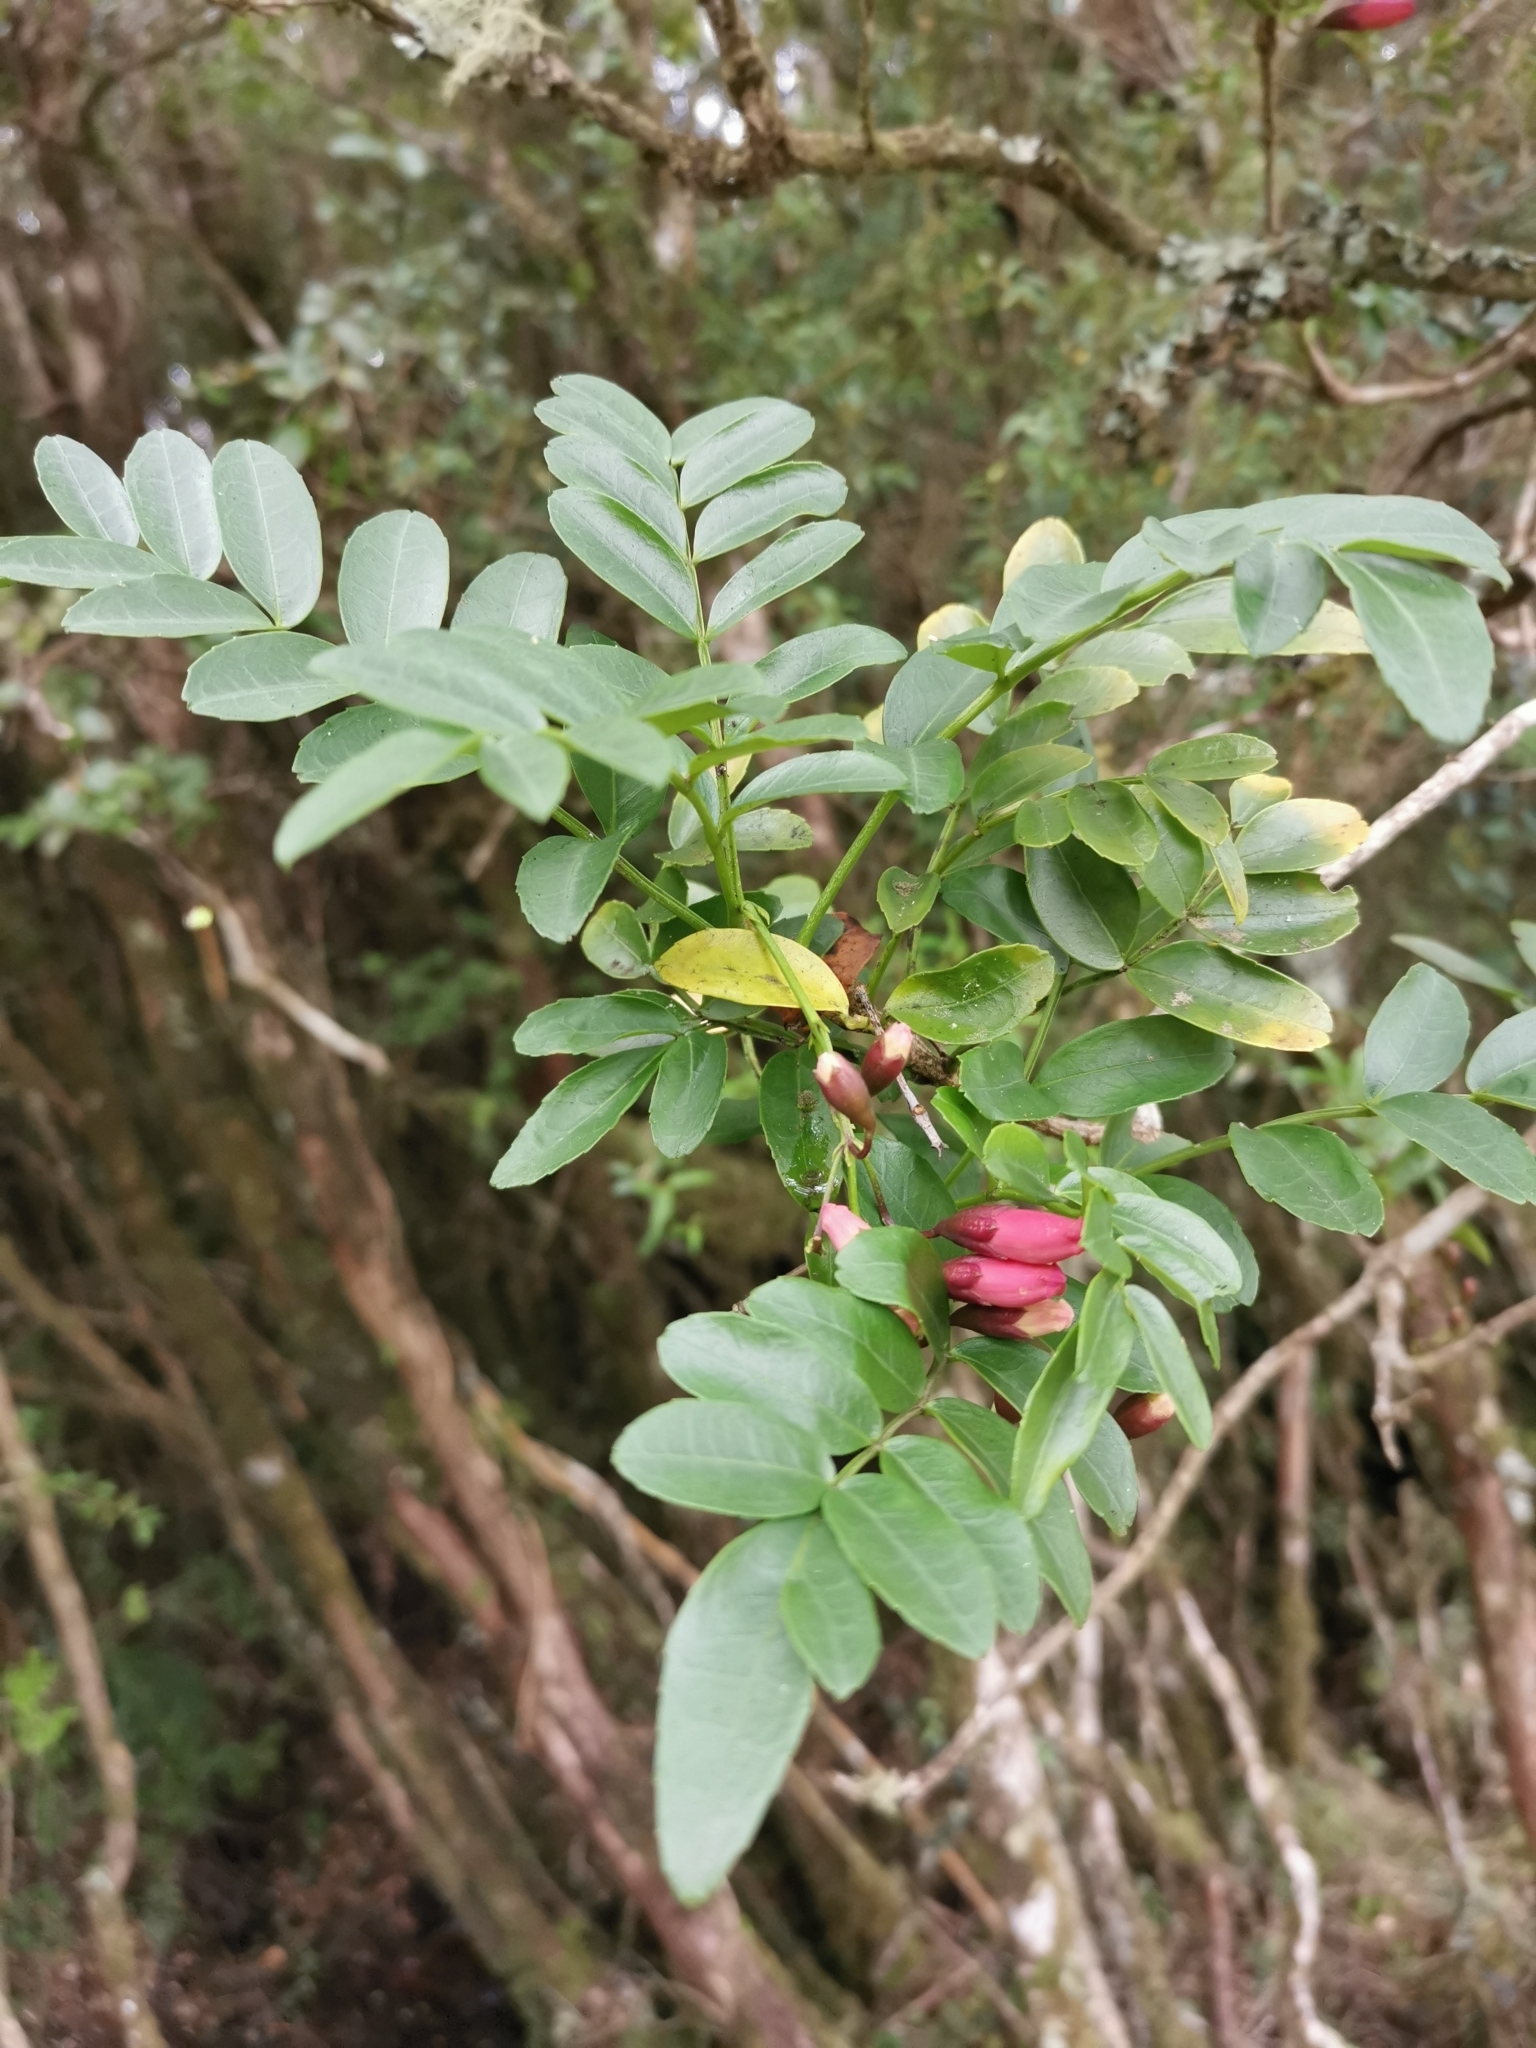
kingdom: Plantae
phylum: Tracheophyta
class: Magnoliopsida
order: Lamiales
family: Bignoniaceae
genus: Campsidium
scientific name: Campsidium valdivianum
